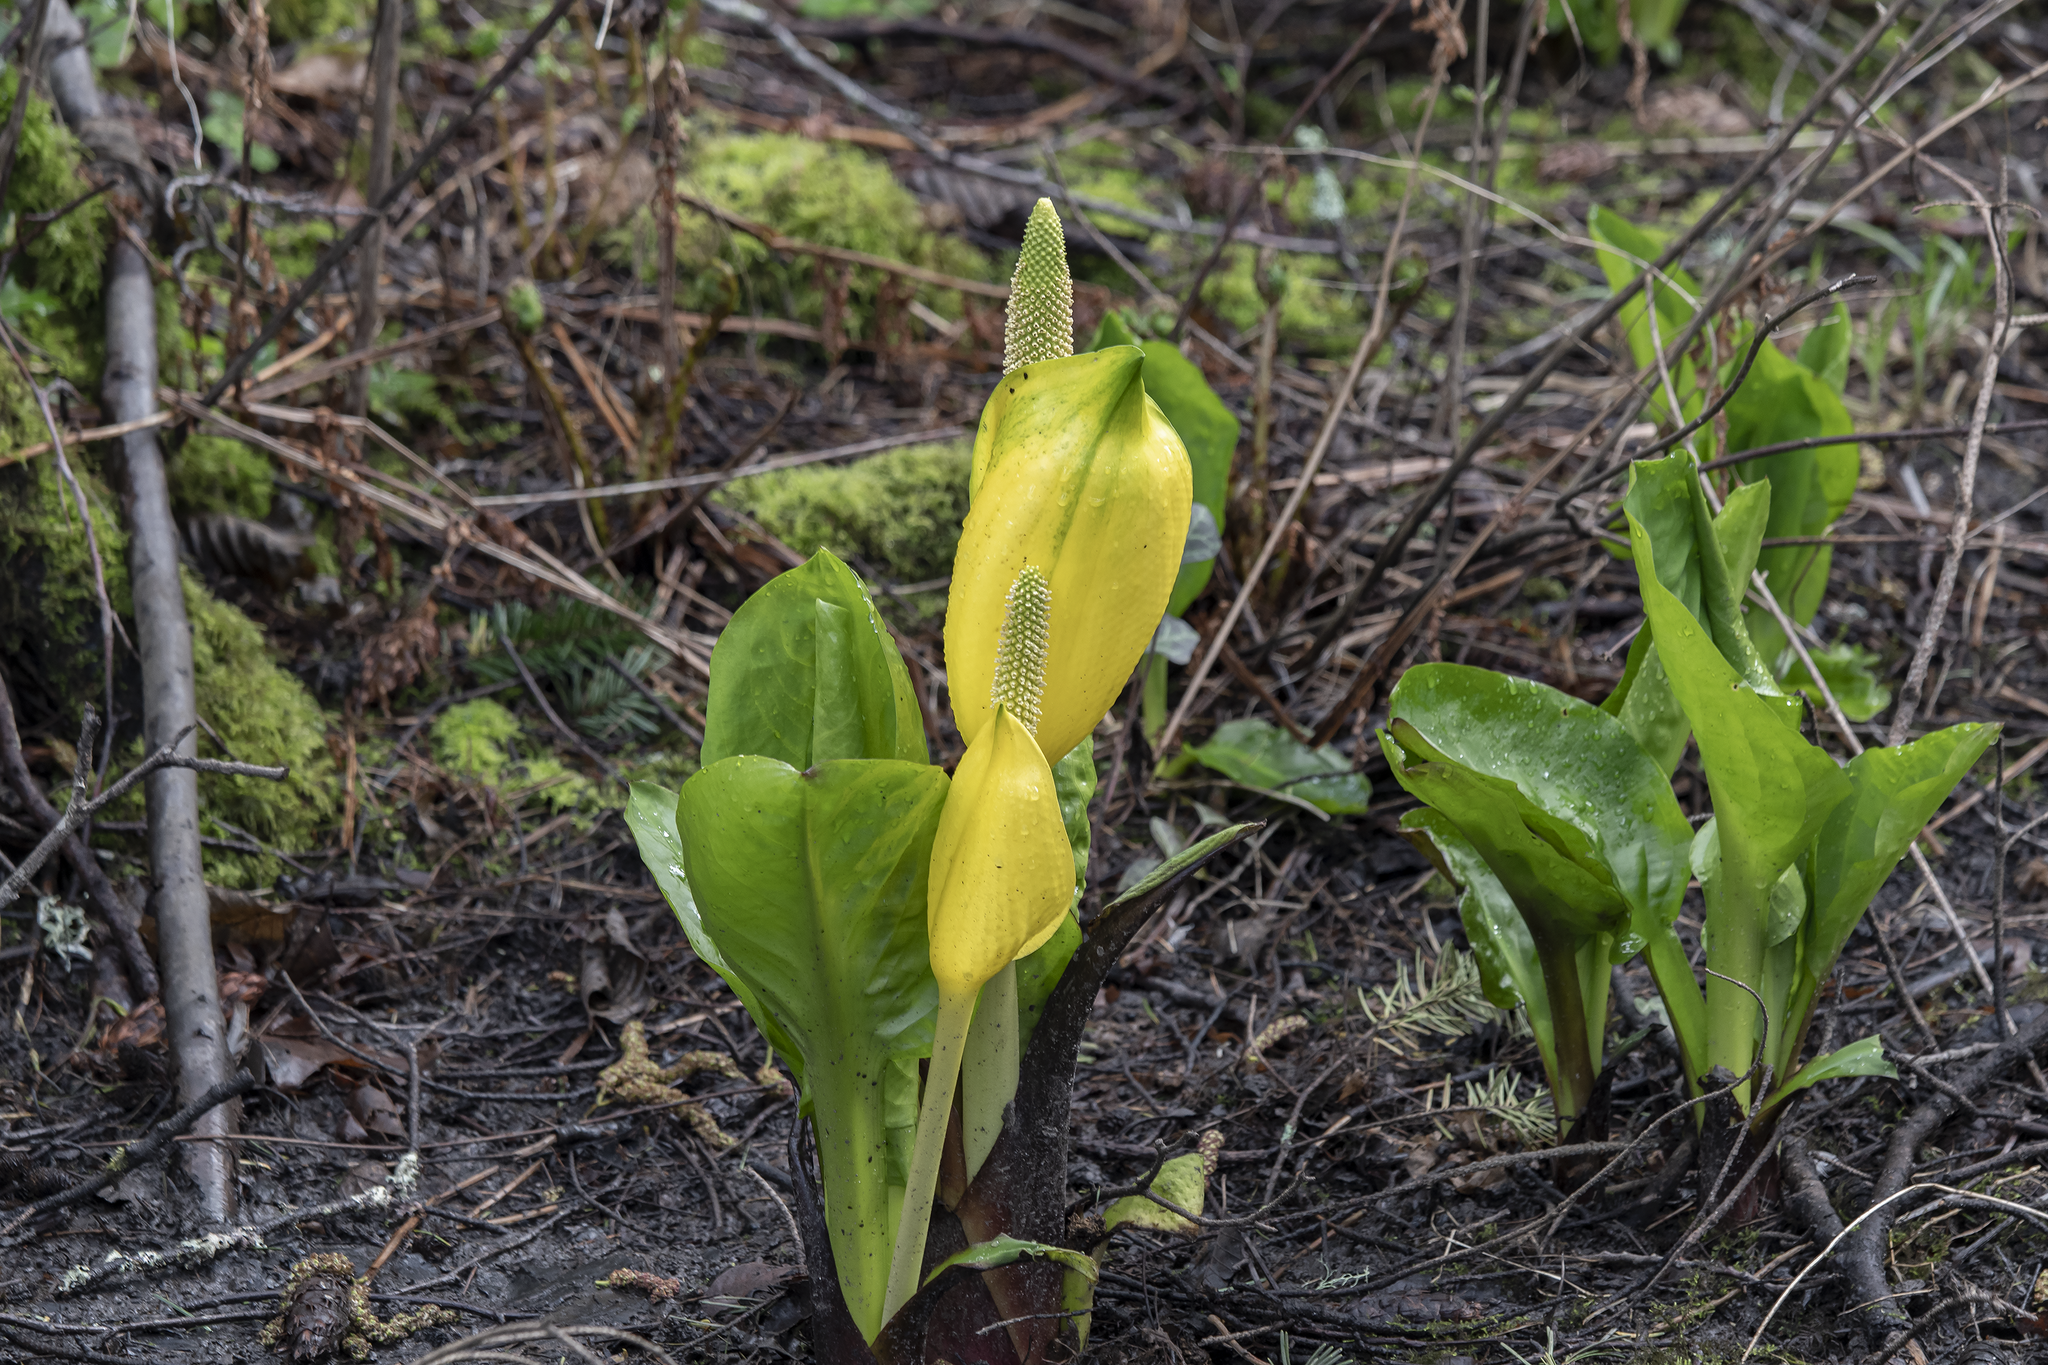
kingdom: Plantae
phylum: Tracheophyta
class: Liliopsida
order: Alismatales
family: Araceae
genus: Lysichiton
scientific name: Lysichiton americanus
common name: American skunk cabbage
